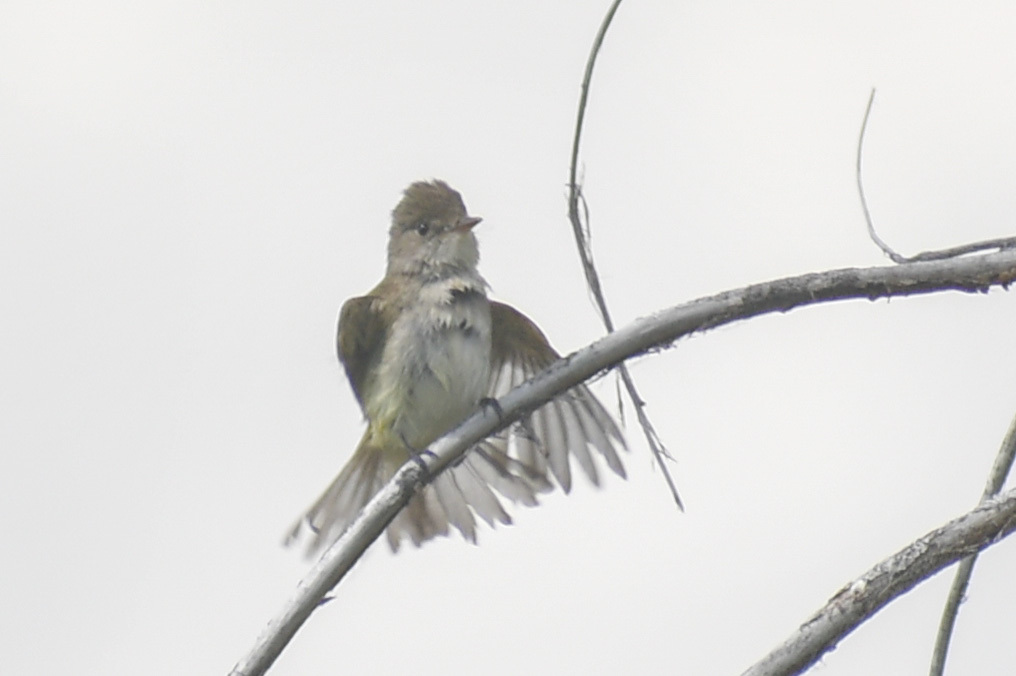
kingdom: Animalia
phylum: Chordata
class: Aves
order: Passeriformes
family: Tyrannidae
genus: Empidonax
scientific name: Empidonax traillii
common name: Willow flycatcher
